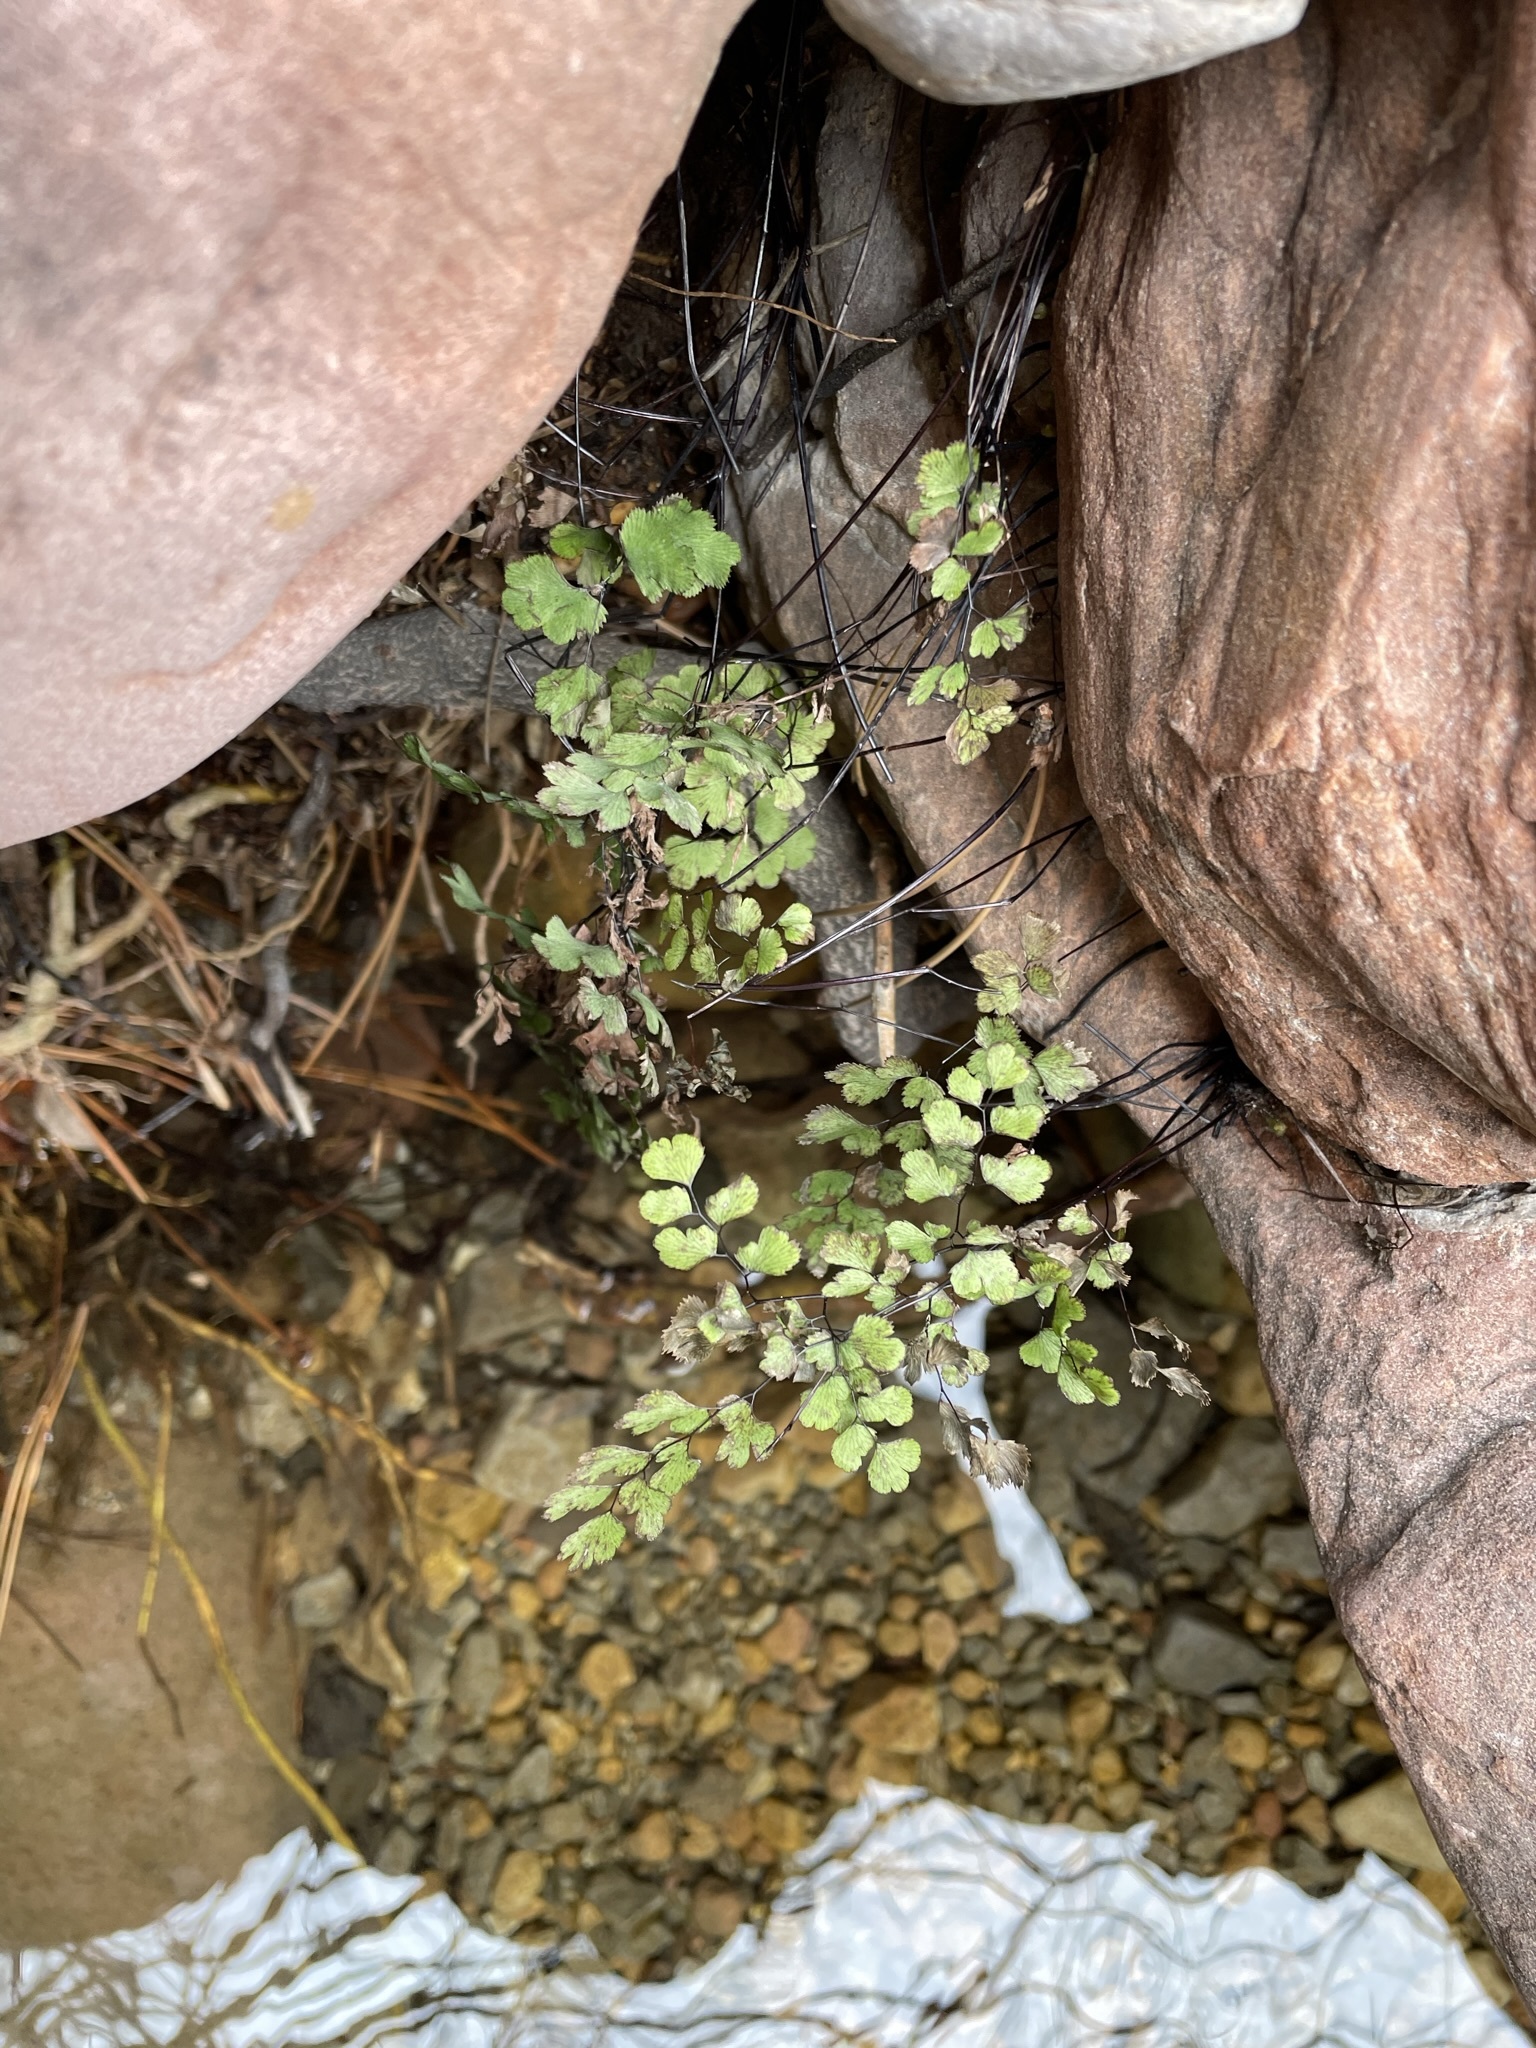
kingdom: Plantae
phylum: Tracheophyta
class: Polypodiopsida
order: Polypodiales
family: Pteridaceae
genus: Adiantum
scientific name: Adiantum capillus-veneris
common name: Maidenhair fern
